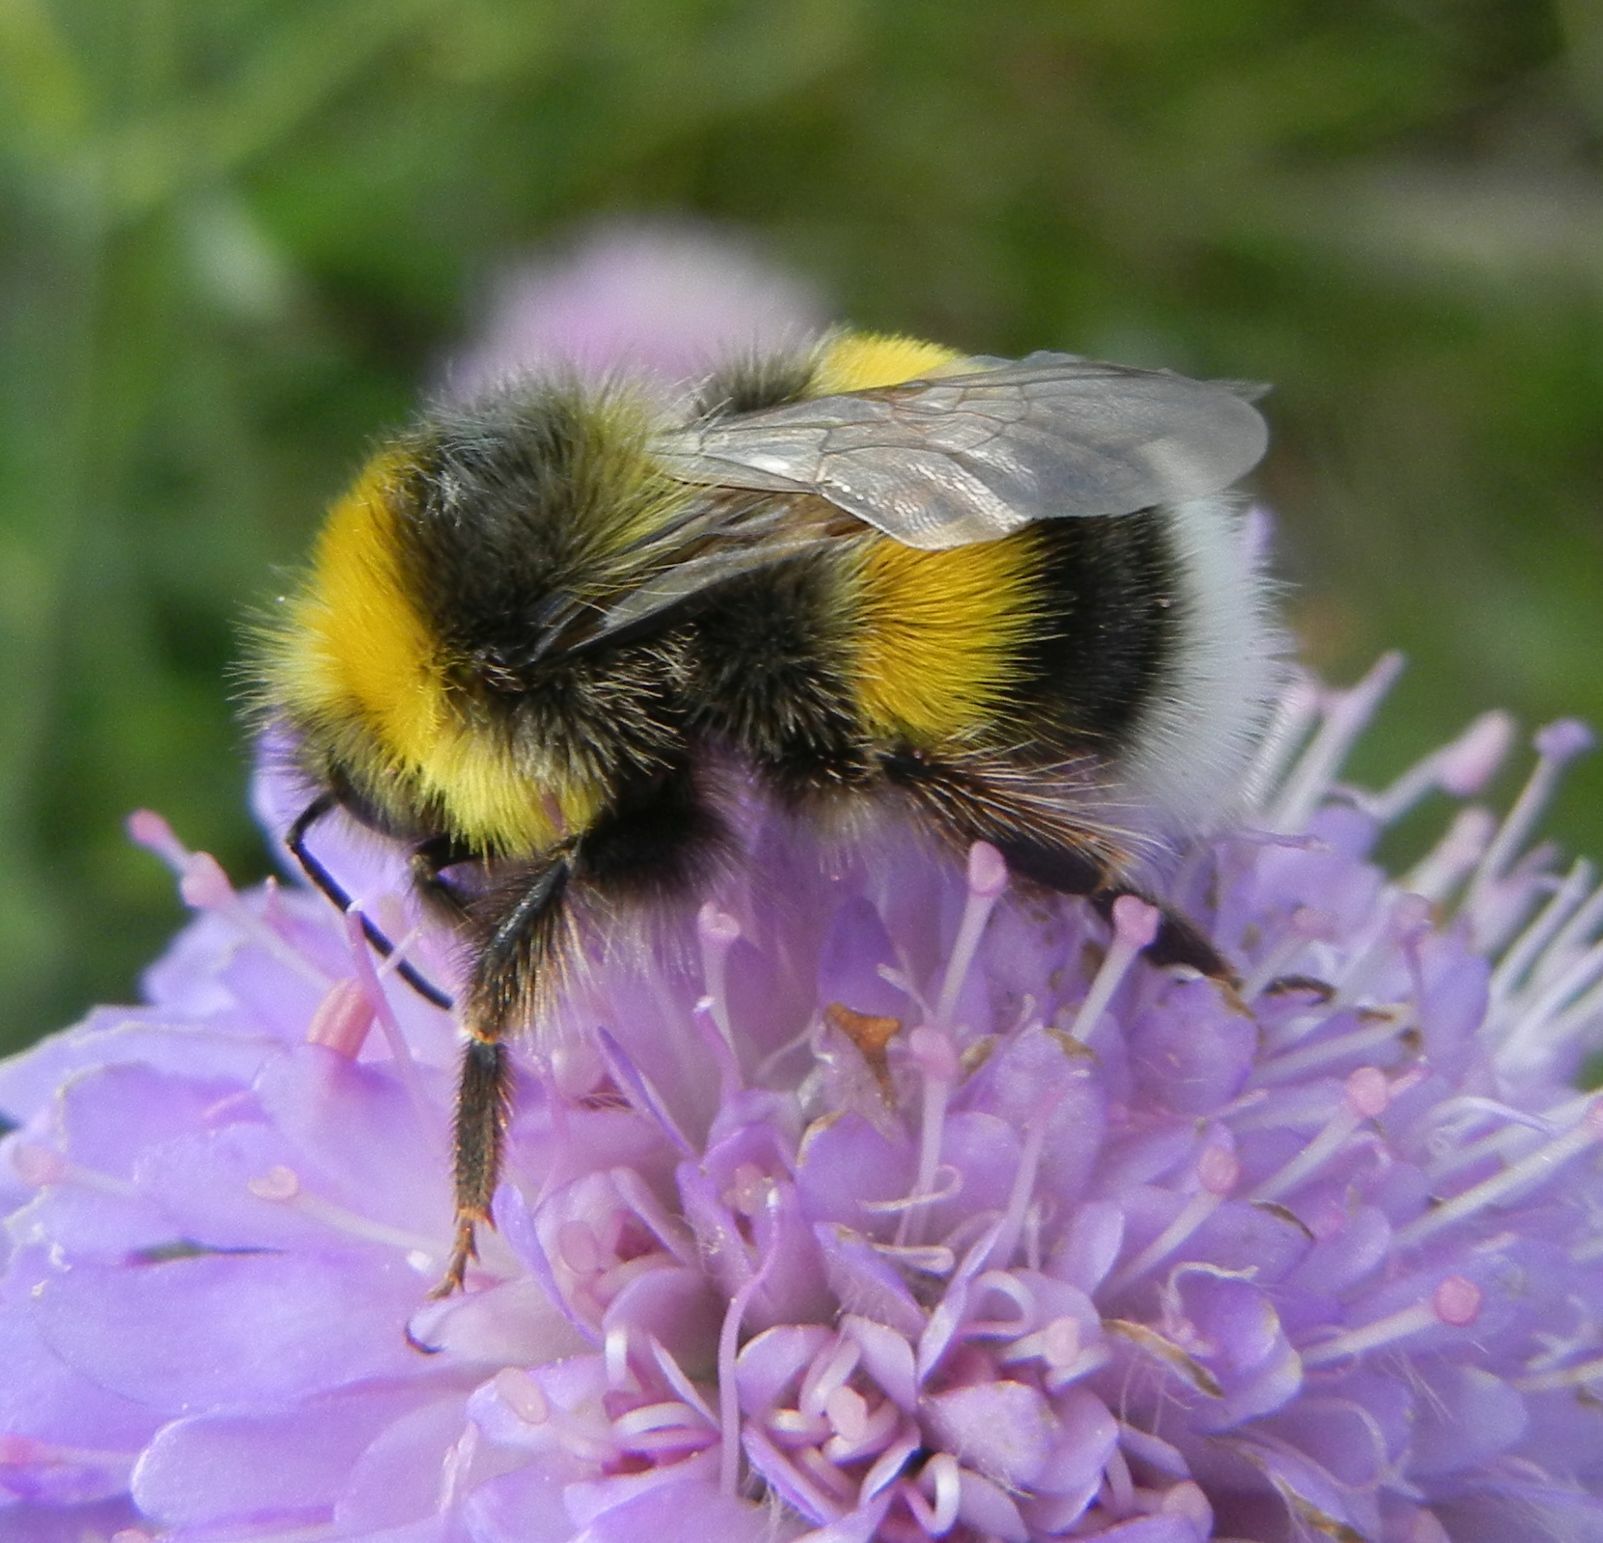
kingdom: Animalia
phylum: Arthropoda
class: Insecta
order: Hymenoptera
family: Apidae
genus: Bombus
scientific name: Bombus lucorum
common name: White-tailed bumblebee
